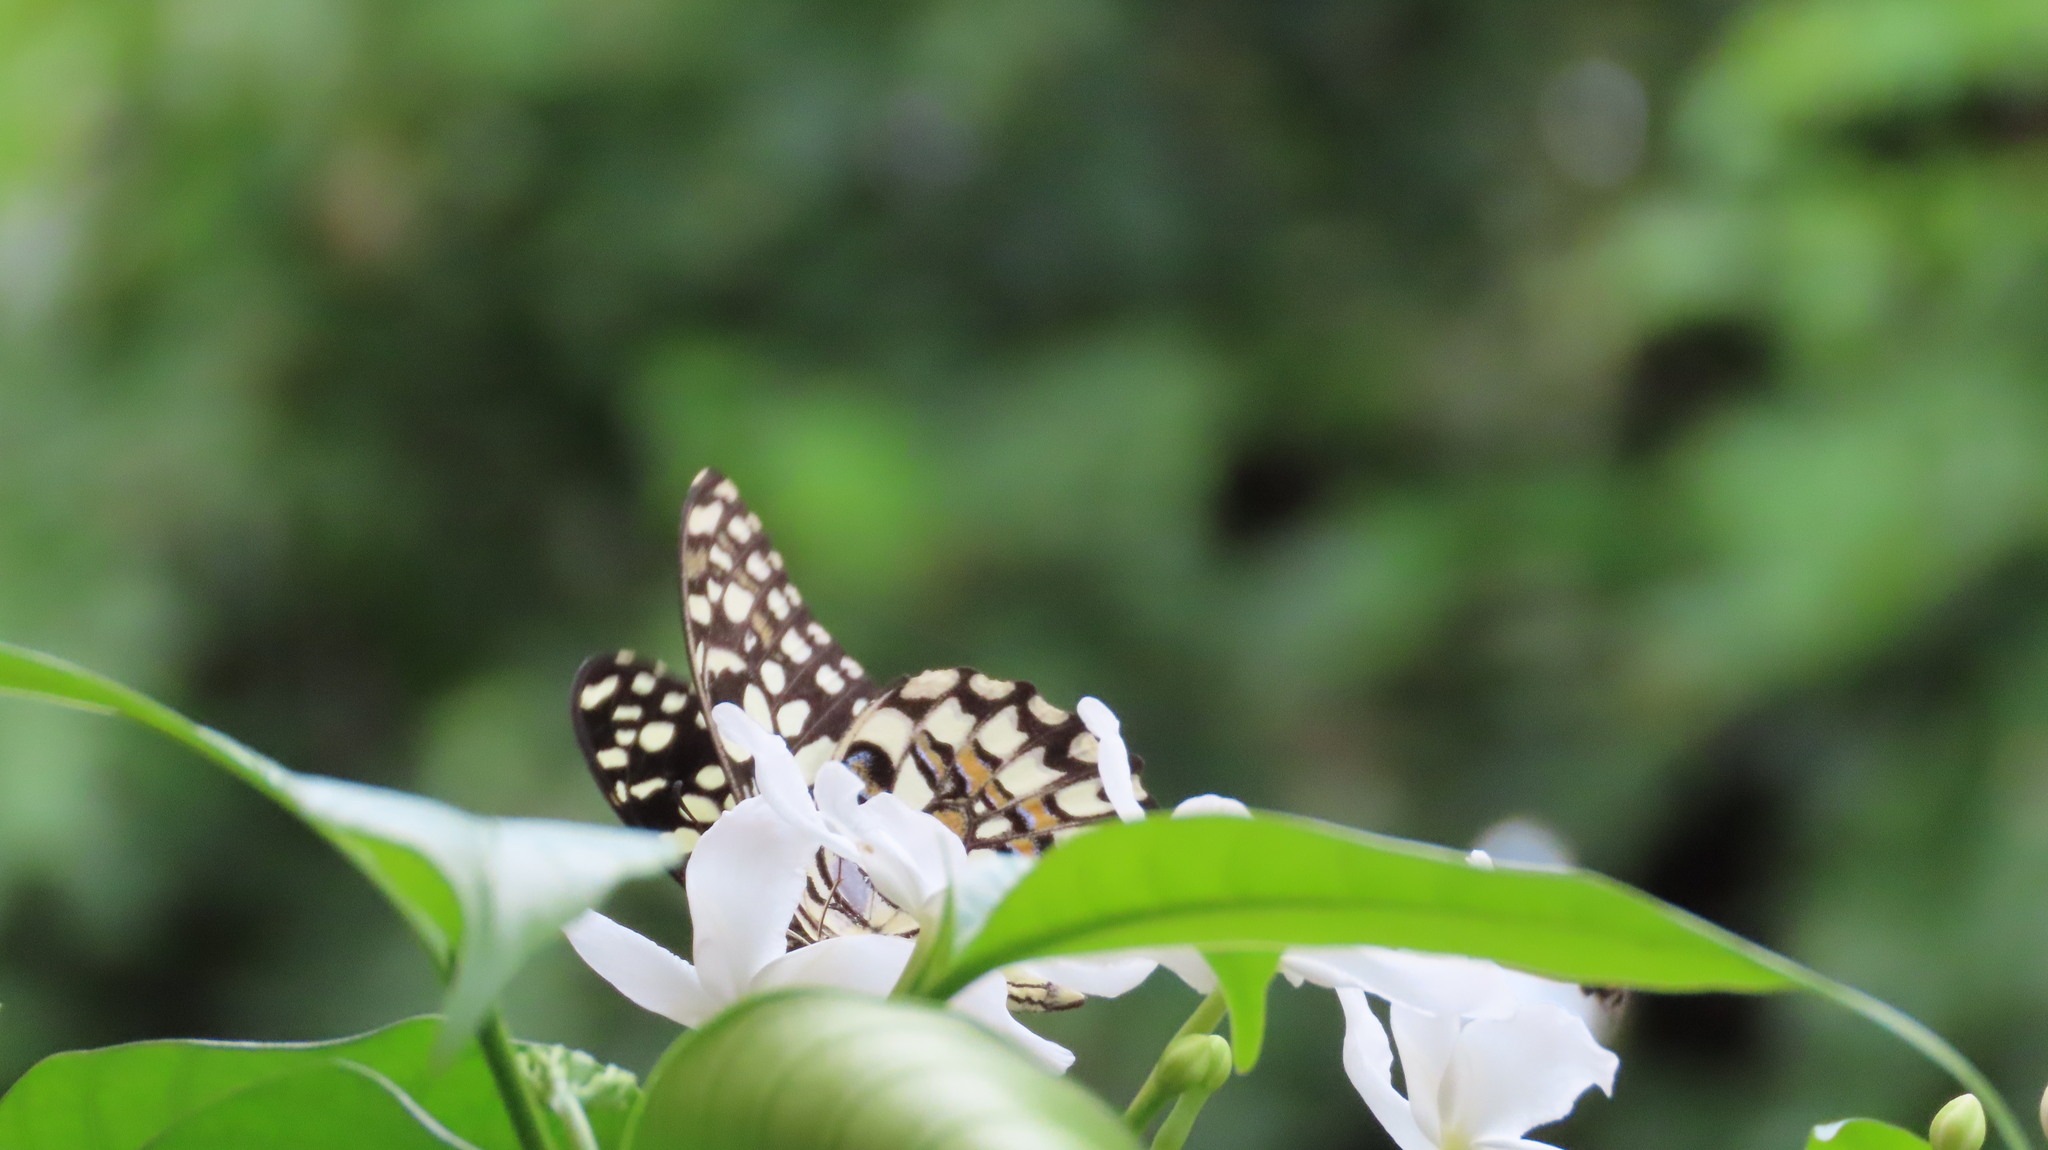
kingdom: Animalia
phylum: Arthropoda
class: Insecta
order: Lepidoptera
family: Papilionidae
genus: Papilio
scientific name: Papilio demoleus
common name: Lime butterfly
